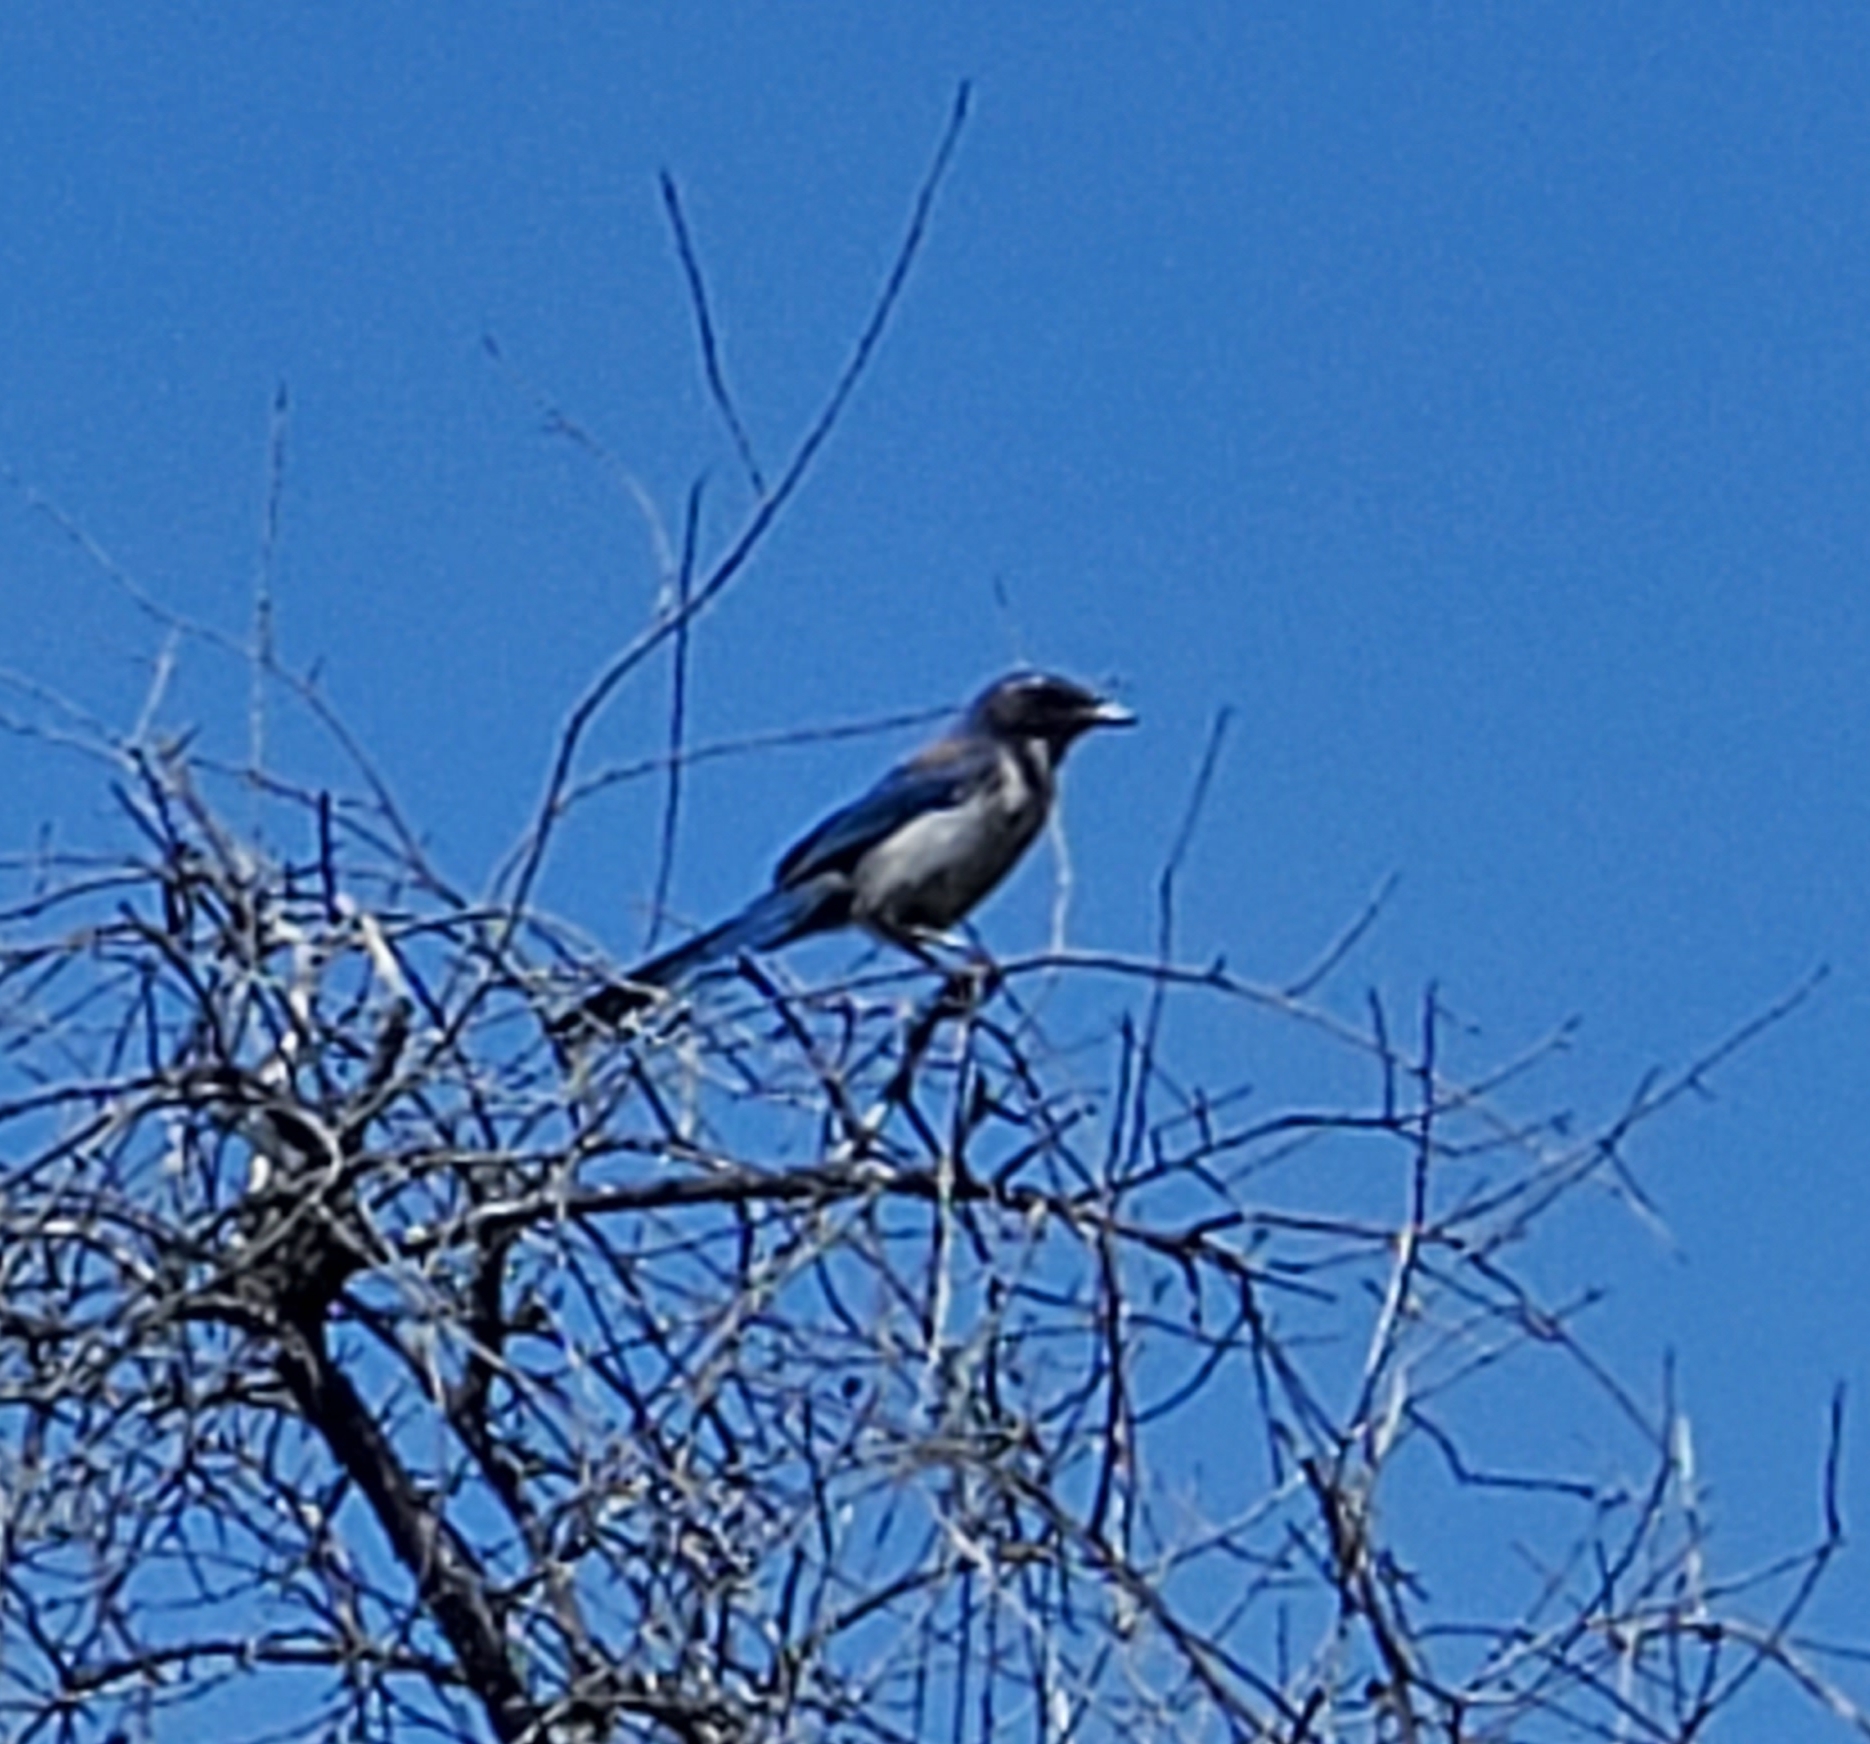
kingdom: Animalia
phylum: Chordata
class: Aves
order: Passeriformes
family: Corvidae
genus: Aphelocoma
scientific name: Aphelocoma californica
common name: California scrub-jay
